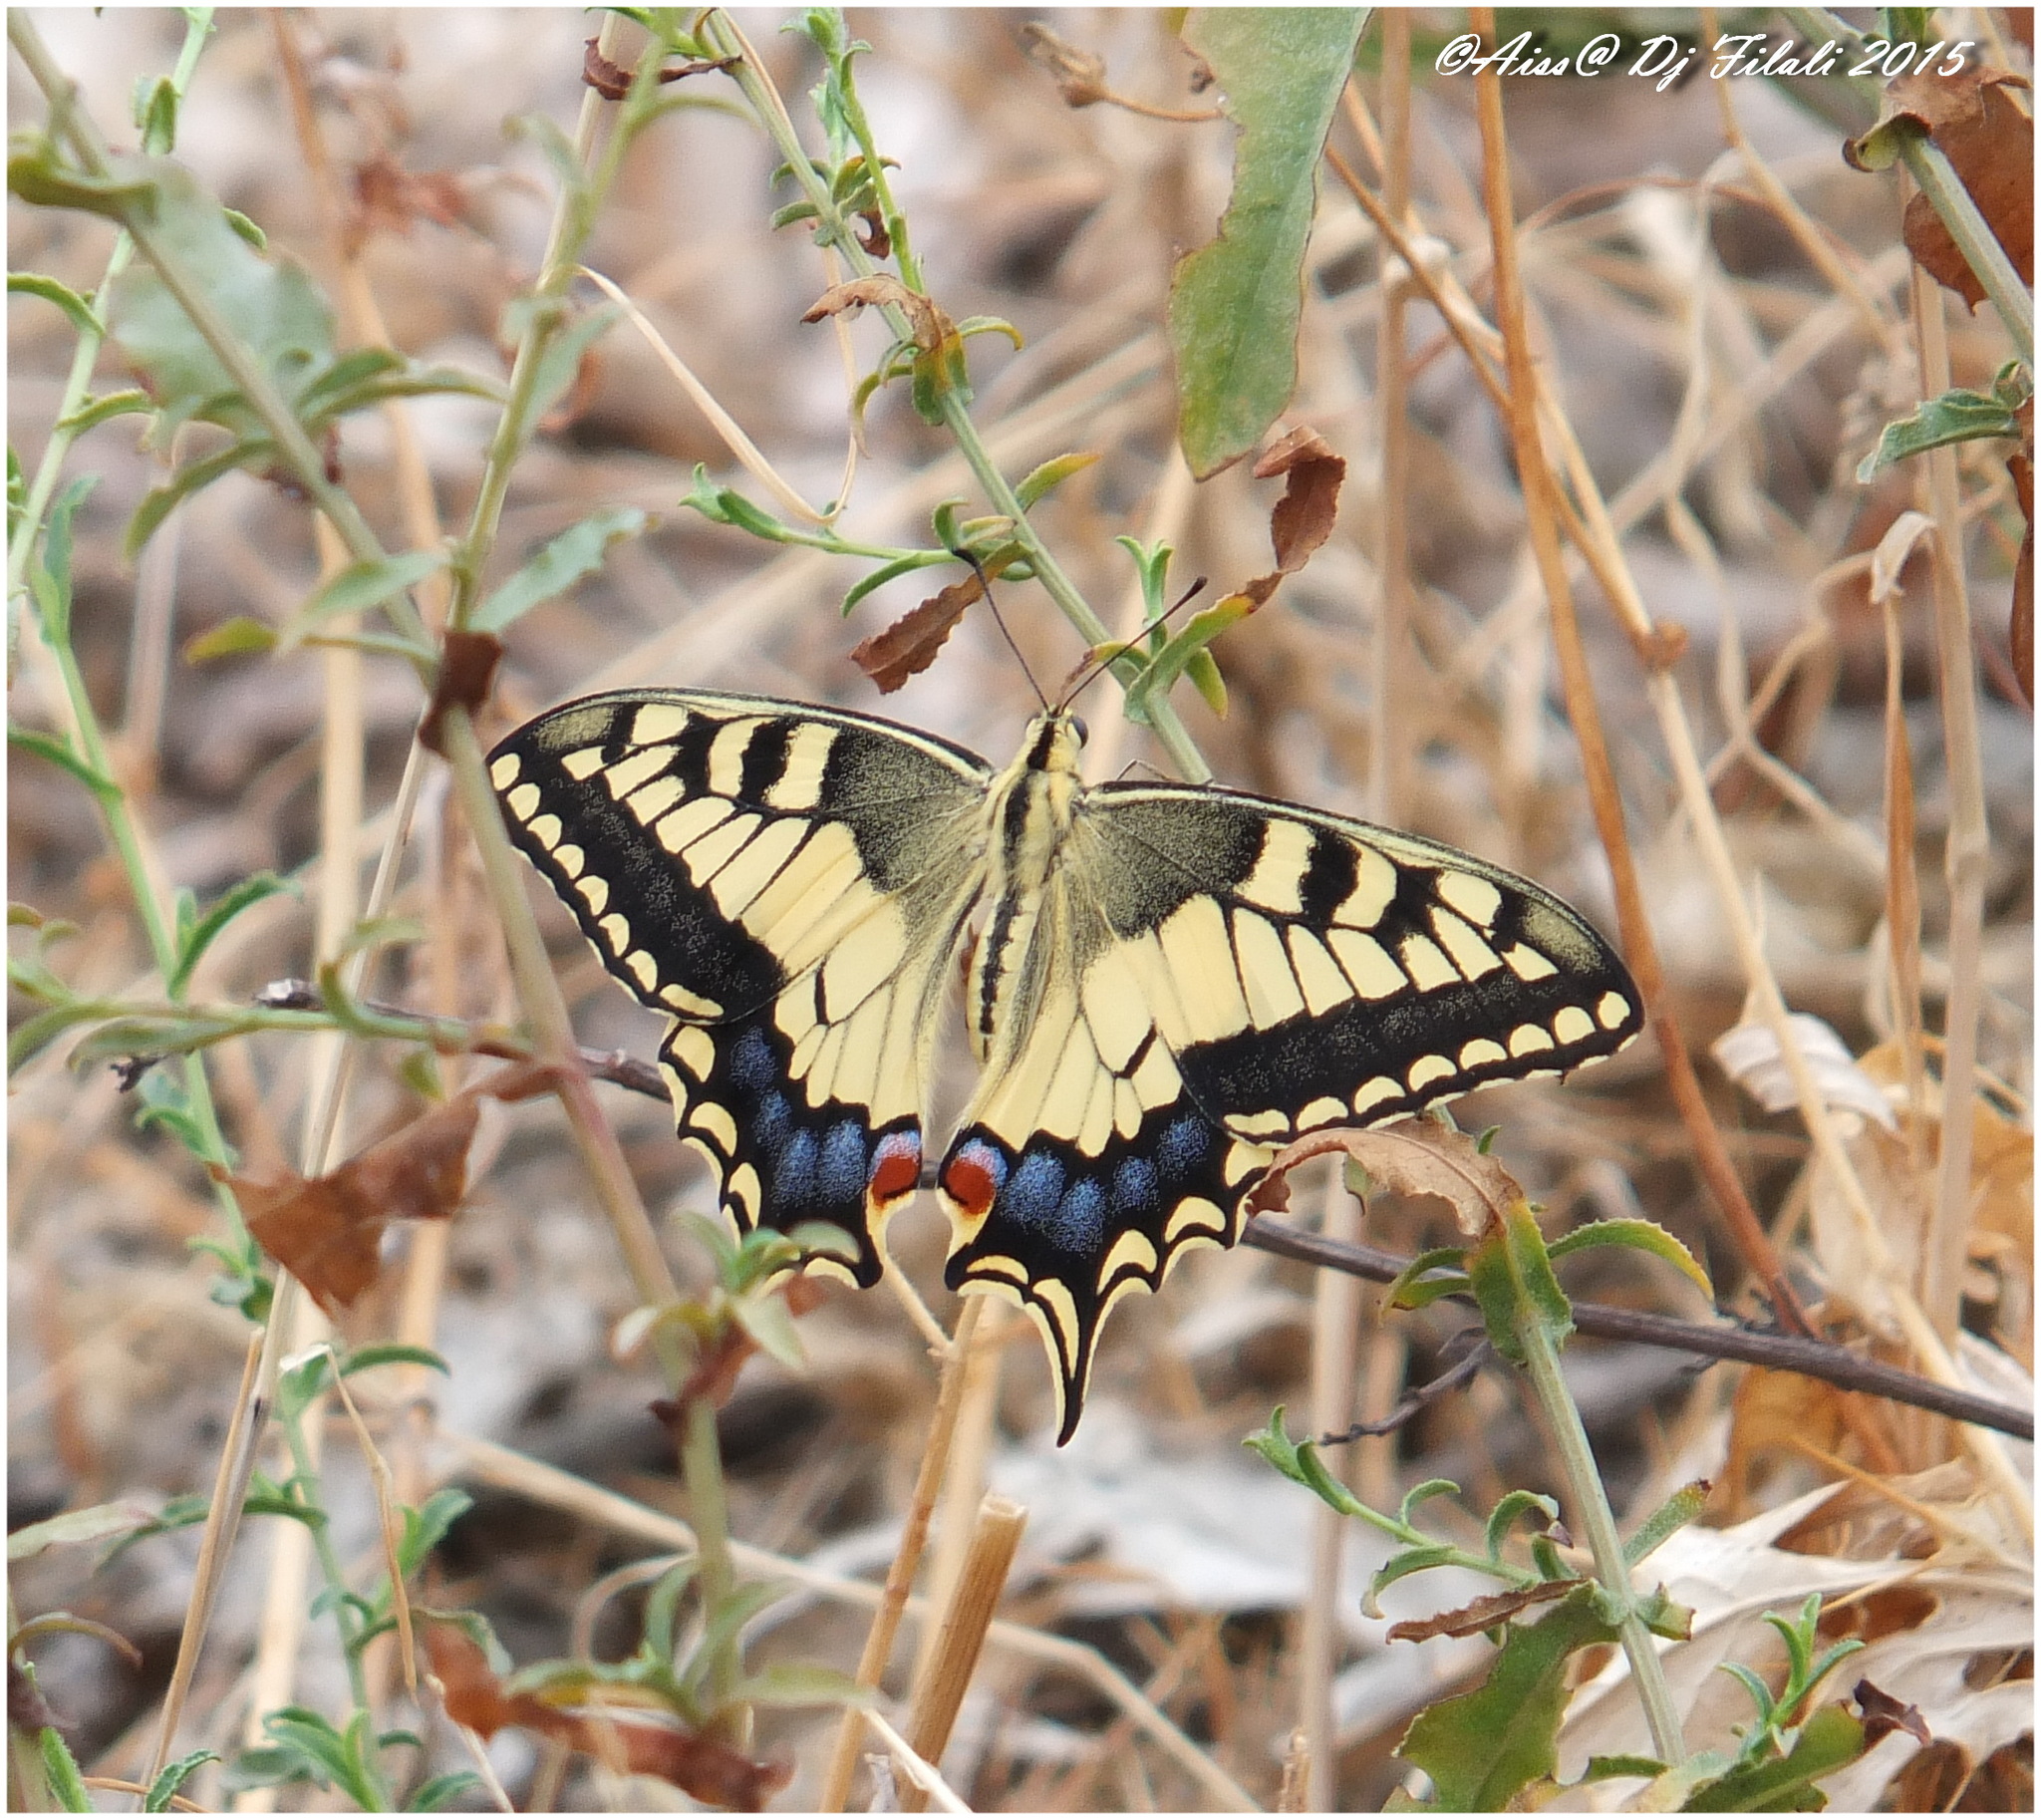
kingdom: Animalia
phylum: Arthropoda
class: Insecta
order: Lepidoptera
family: Papilionidae
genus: Papilio
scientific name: Papilio machaon
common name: Swallowtail
